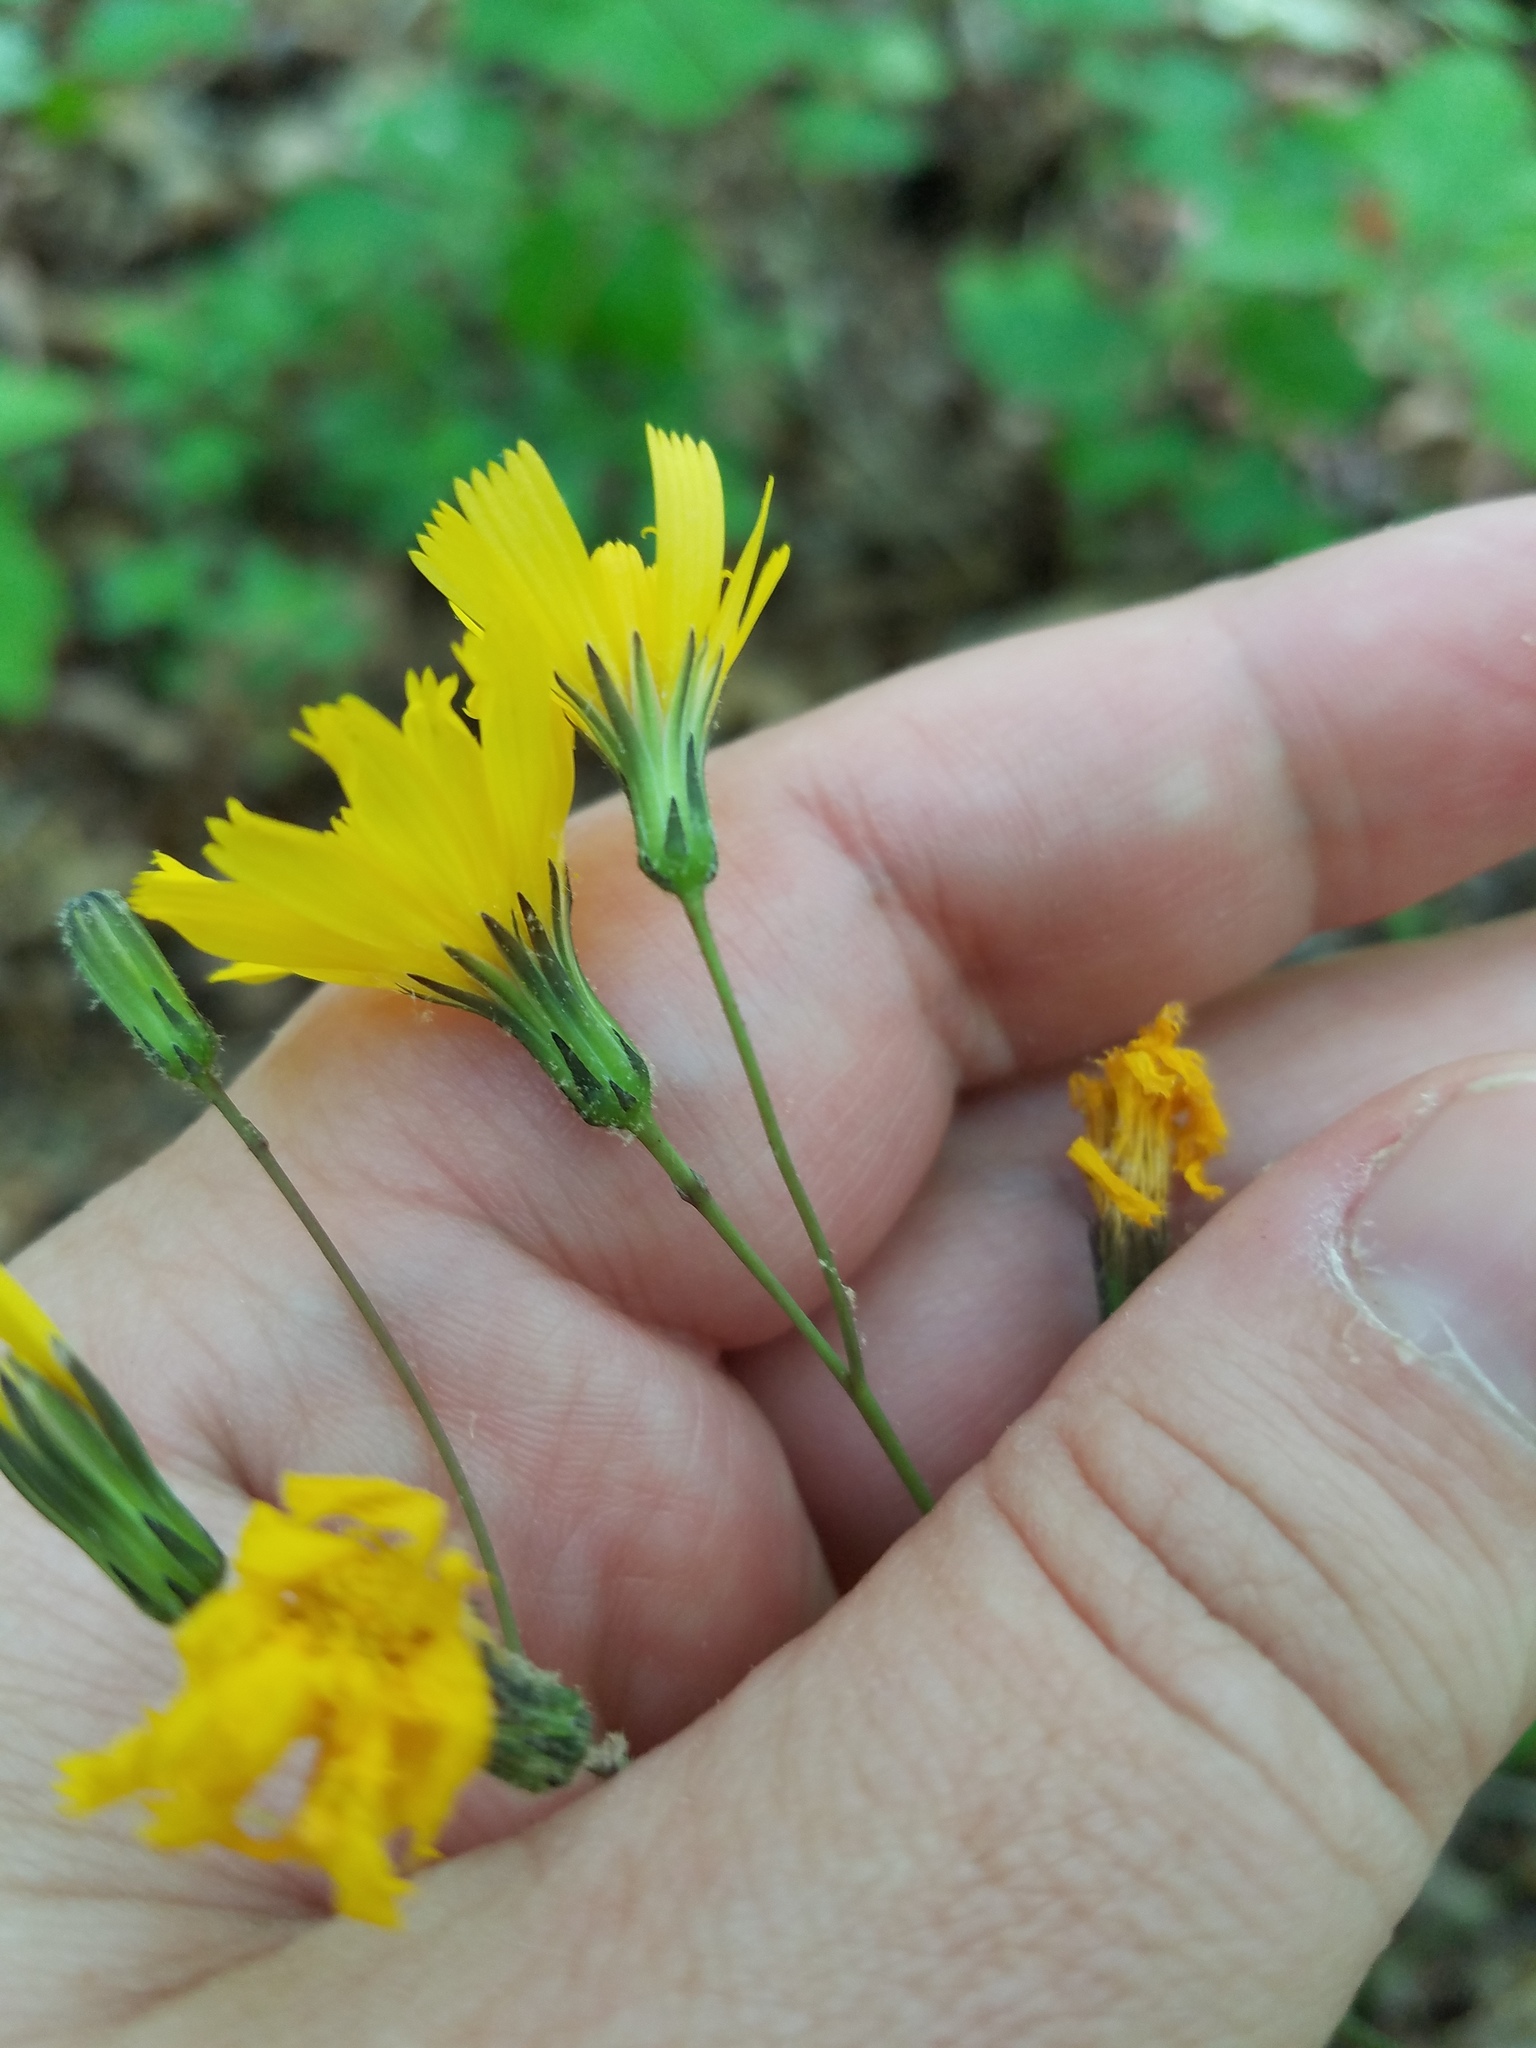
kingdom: Plantae
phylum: Tracheophyta
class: Magnoliopsida
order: Asterales
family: Asteraceae
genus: Hieracium
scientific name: Hieracium venosum
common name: Rattlesnake hawkweed
